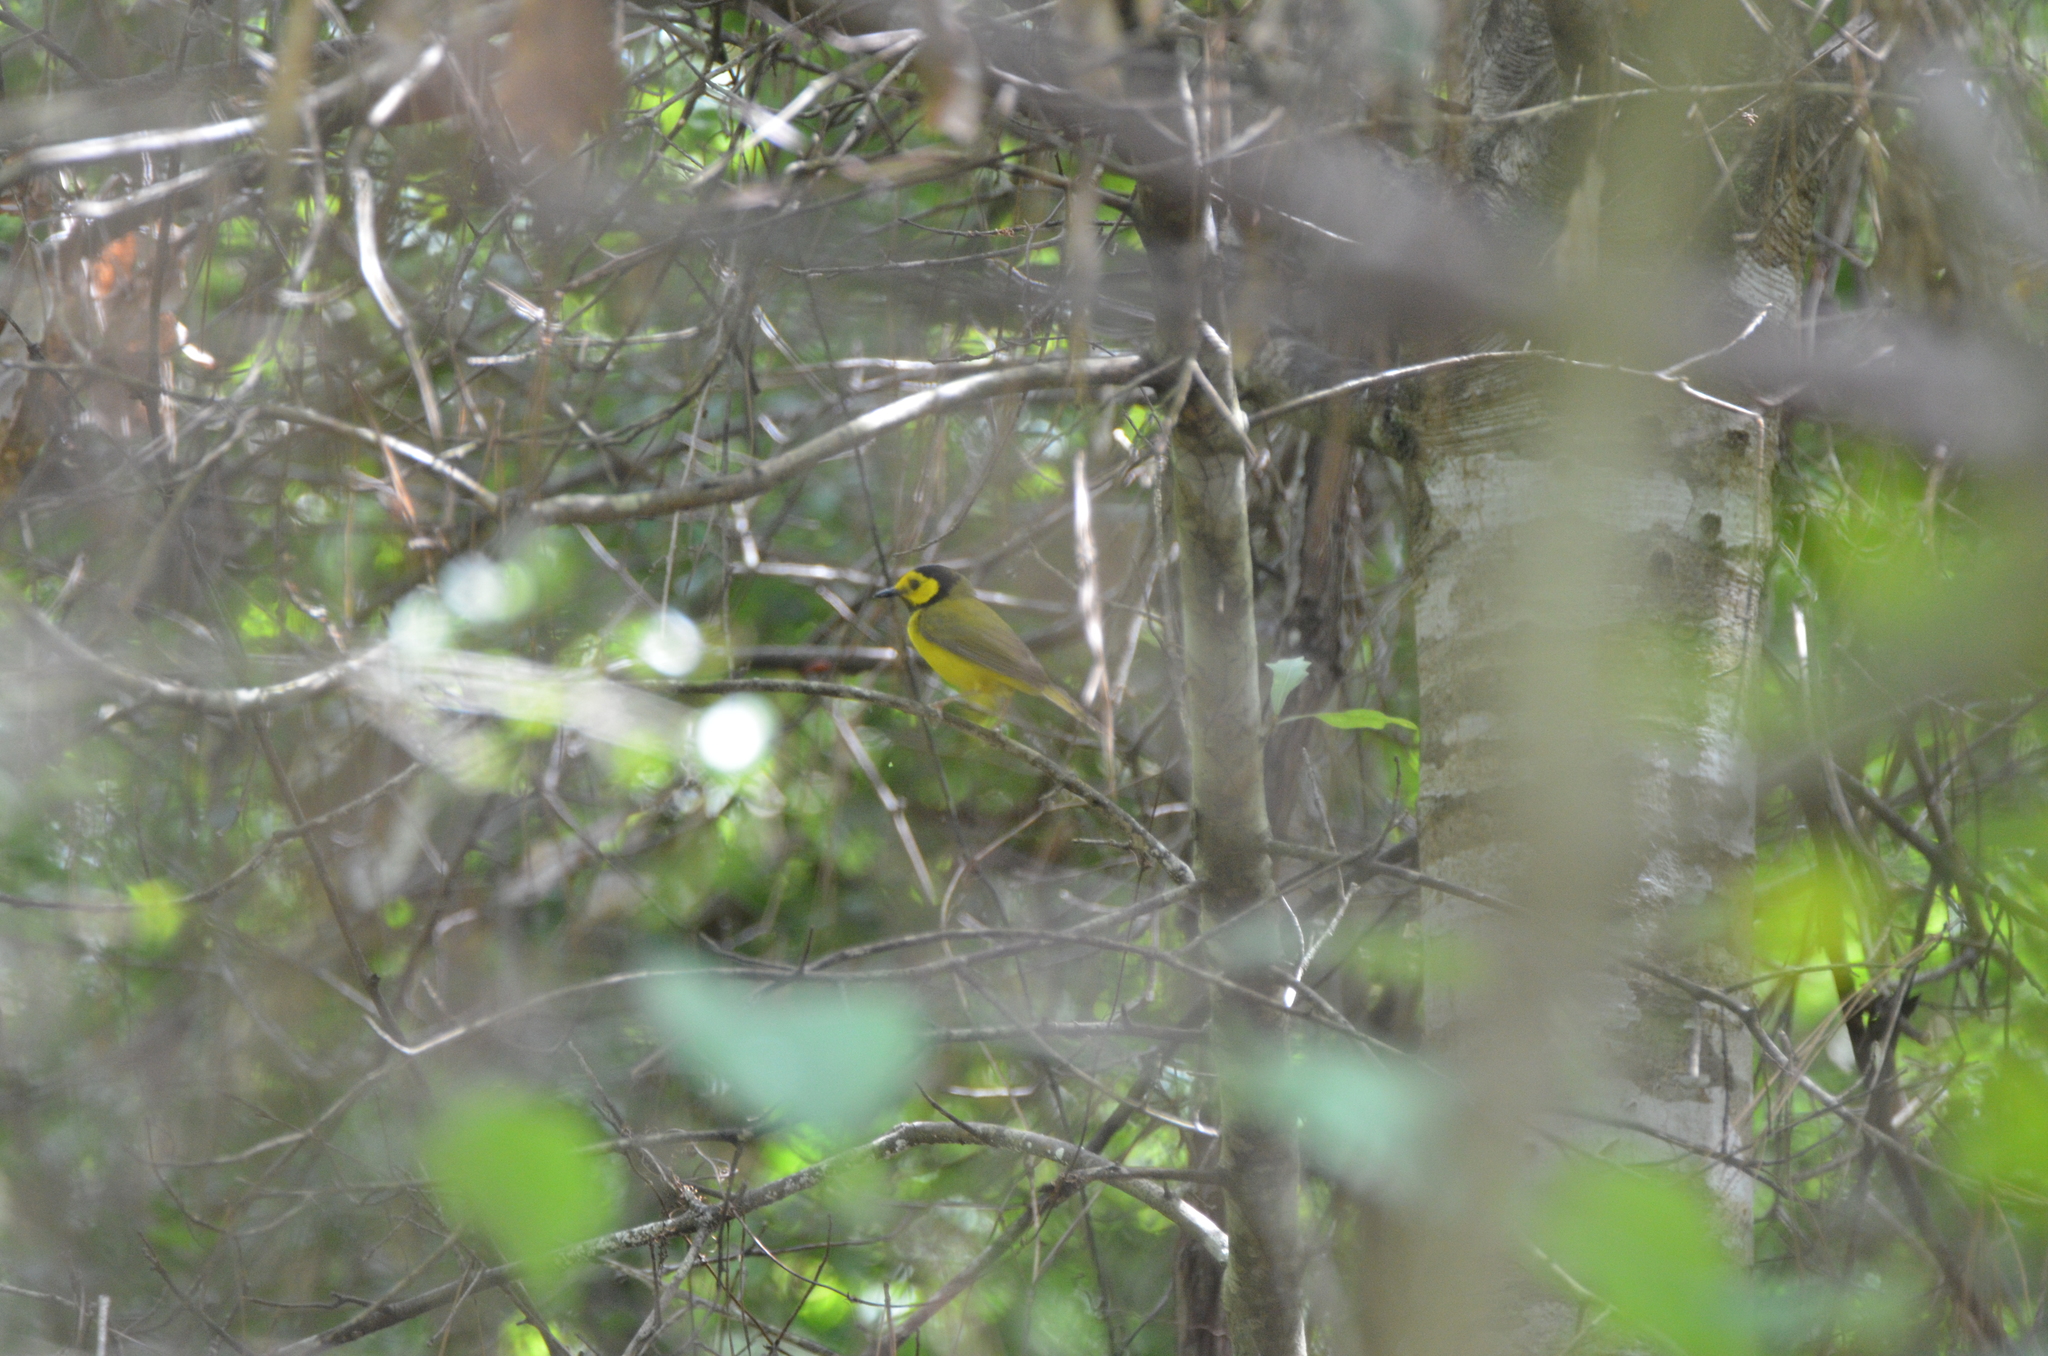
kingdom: Animalia
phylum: Chordata
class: Aves
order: Passeriformes
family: Parulidae
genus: Setophaga
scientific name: Setophaga citrina
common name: Hooded warbler
